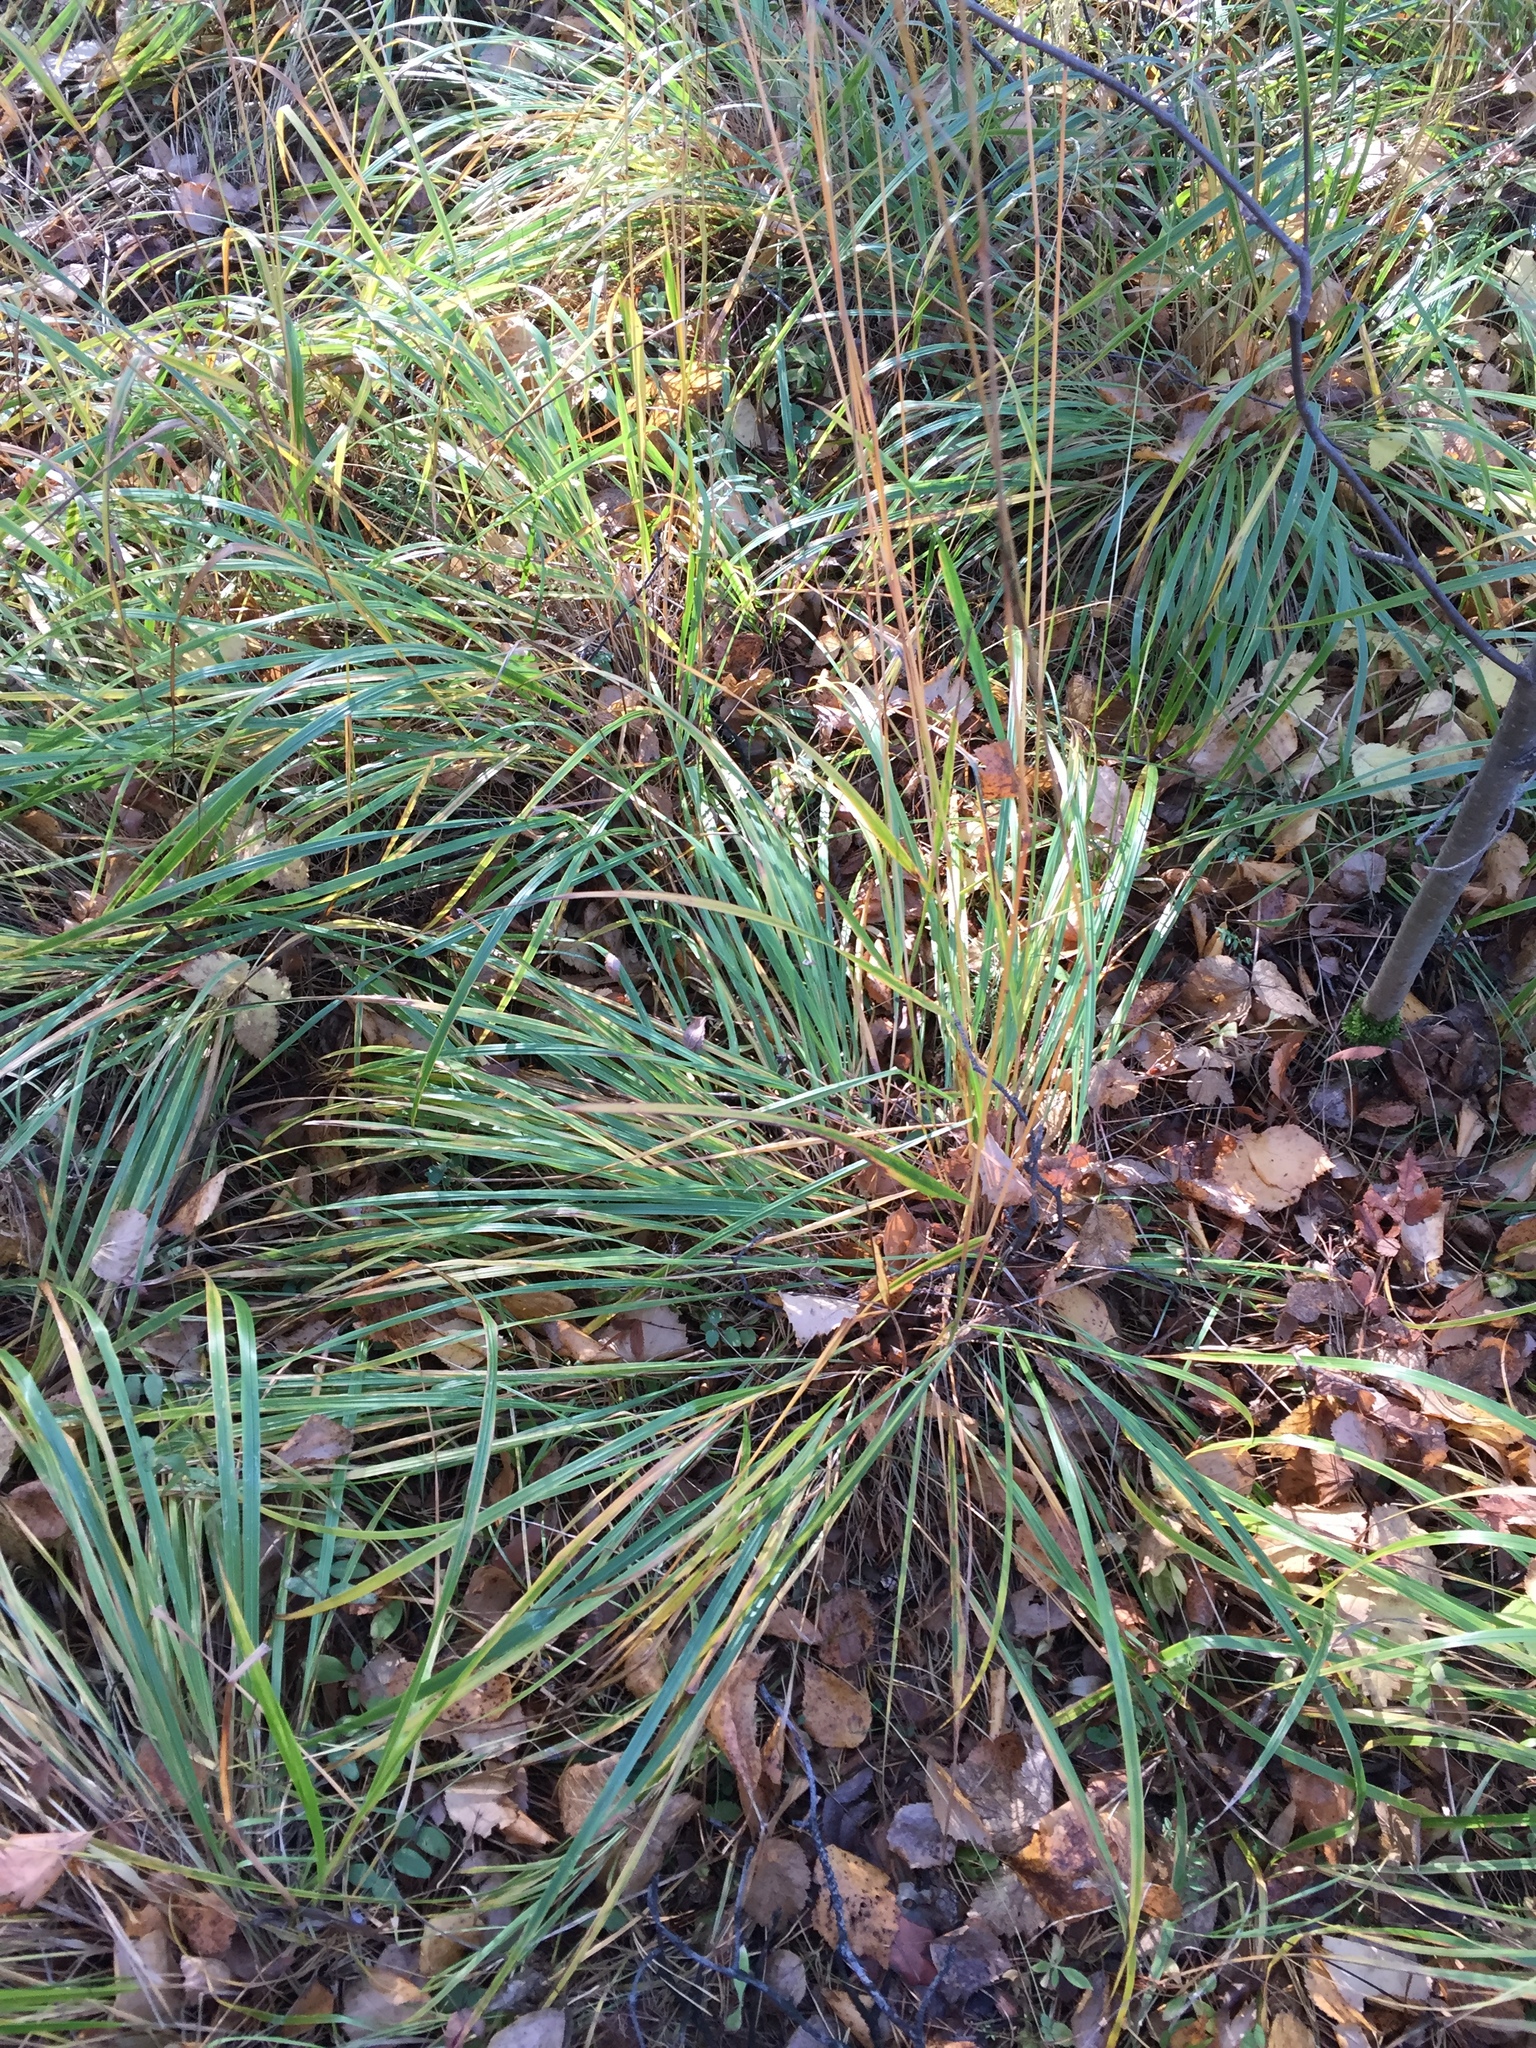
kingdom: Plantae
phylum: Tracheophyta
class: Liliopsida
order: Poales
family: Poaceae
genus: Calamagrostis
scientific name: Calamagrostis arundinacea
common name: Metskastik
